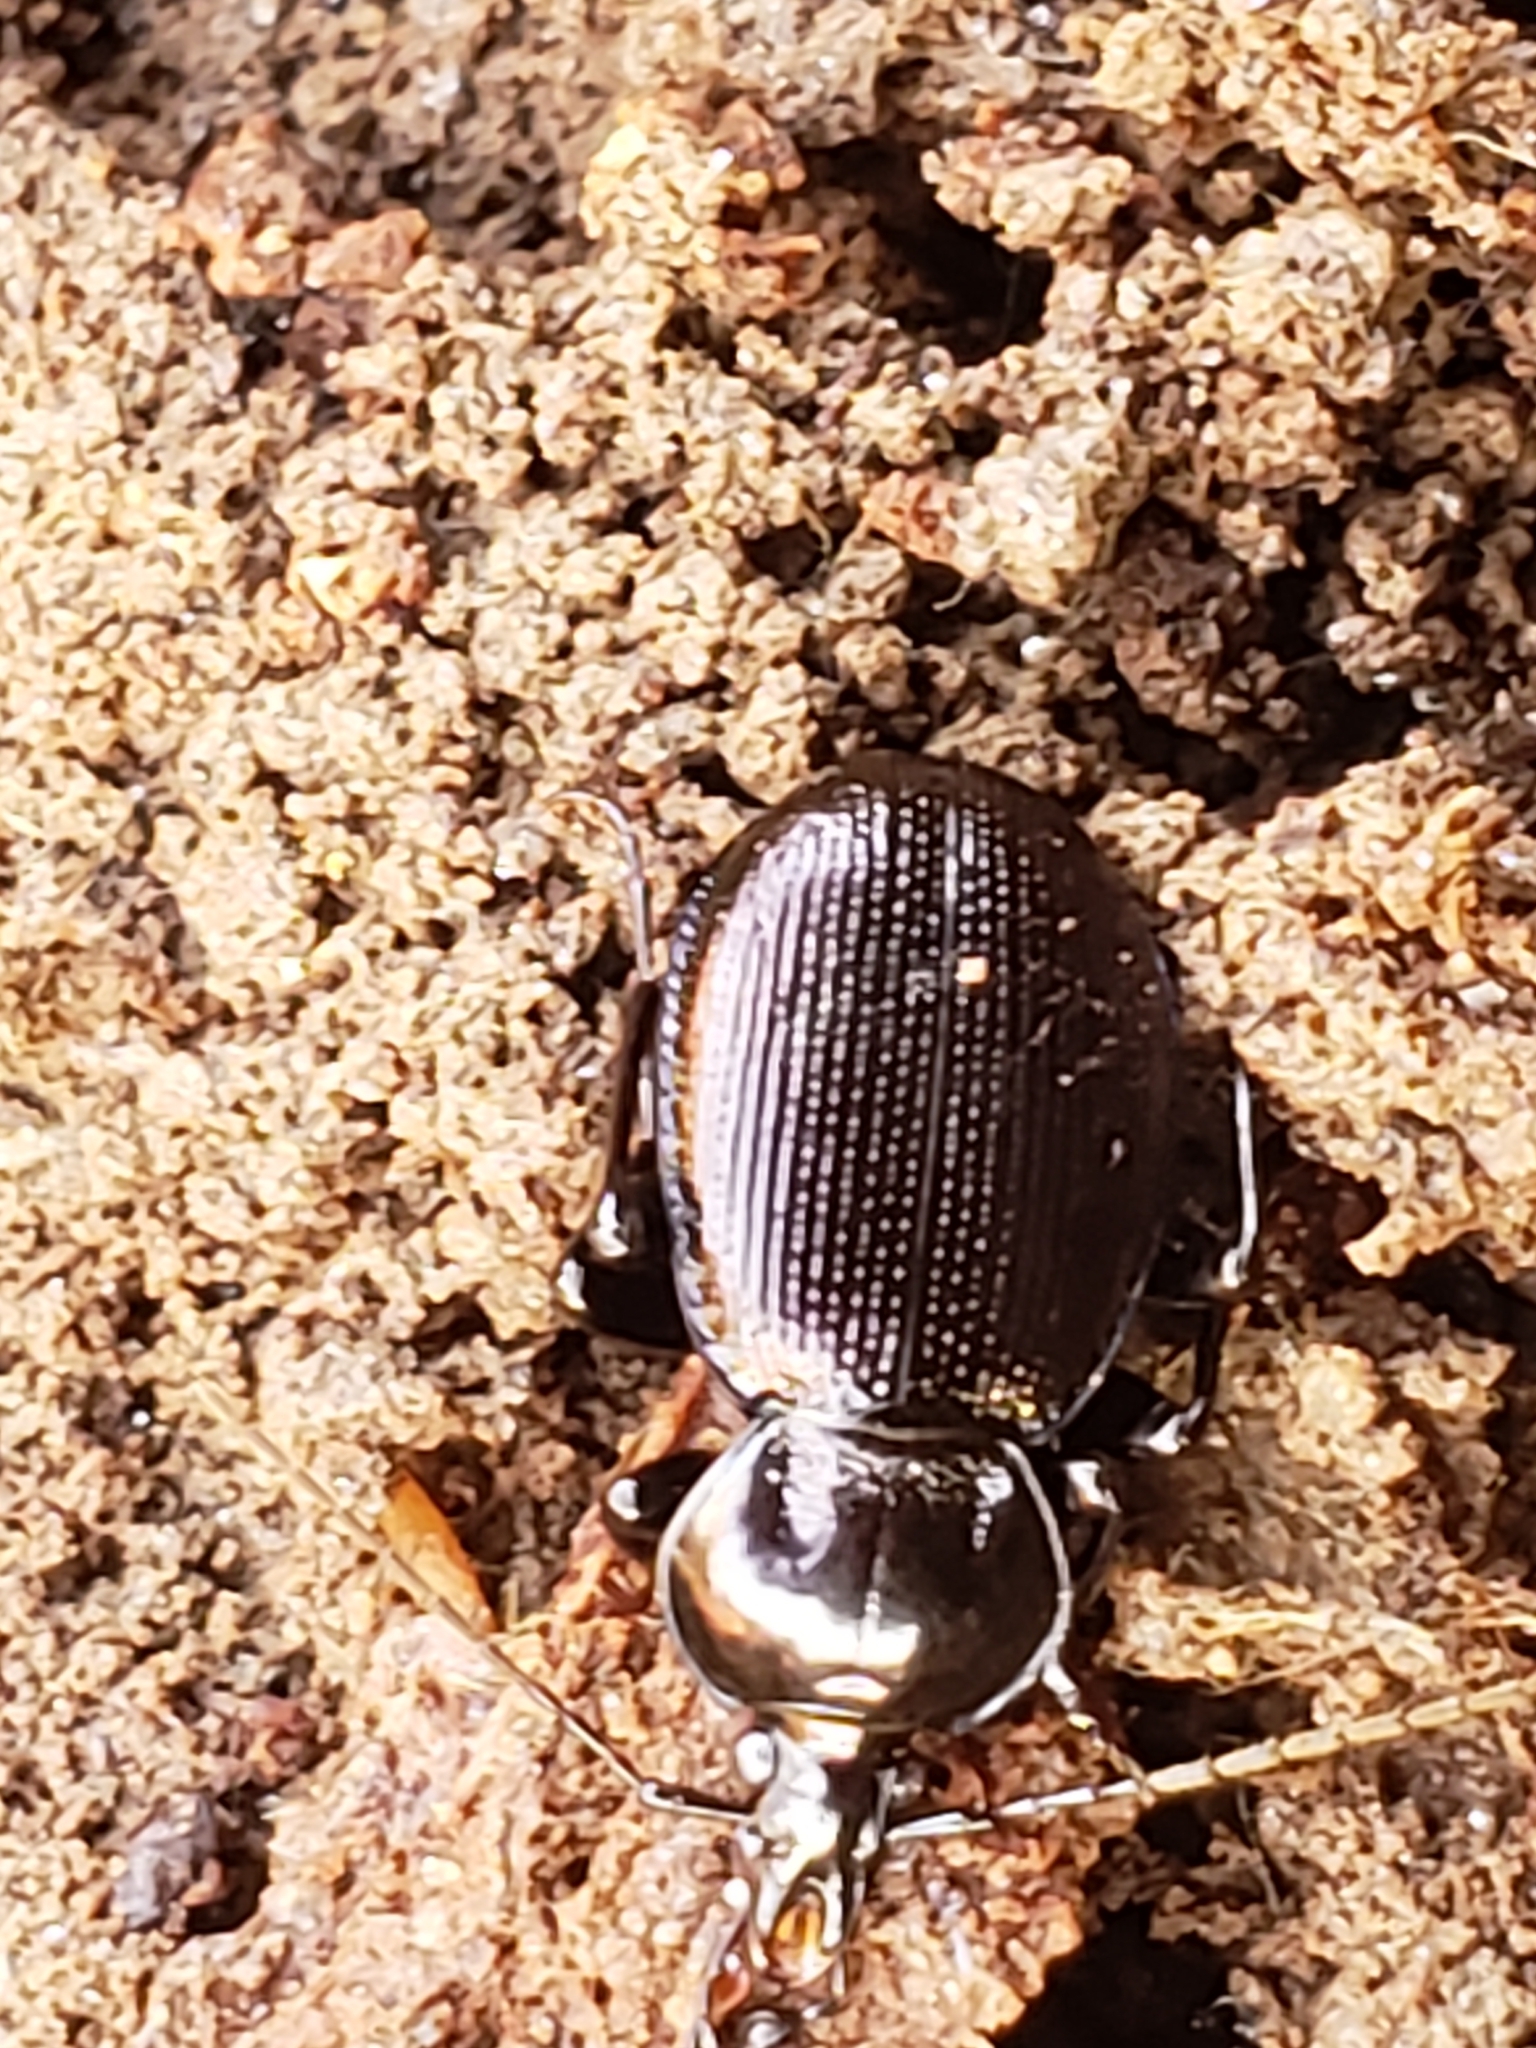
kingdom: Animalia
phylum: Arthropoda
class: Insecta
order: Coleoptera
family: Carabidae
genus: Sphaeroderus
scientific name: Sphaeroderus stenostomus
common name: Small snail-eating ground beetle
